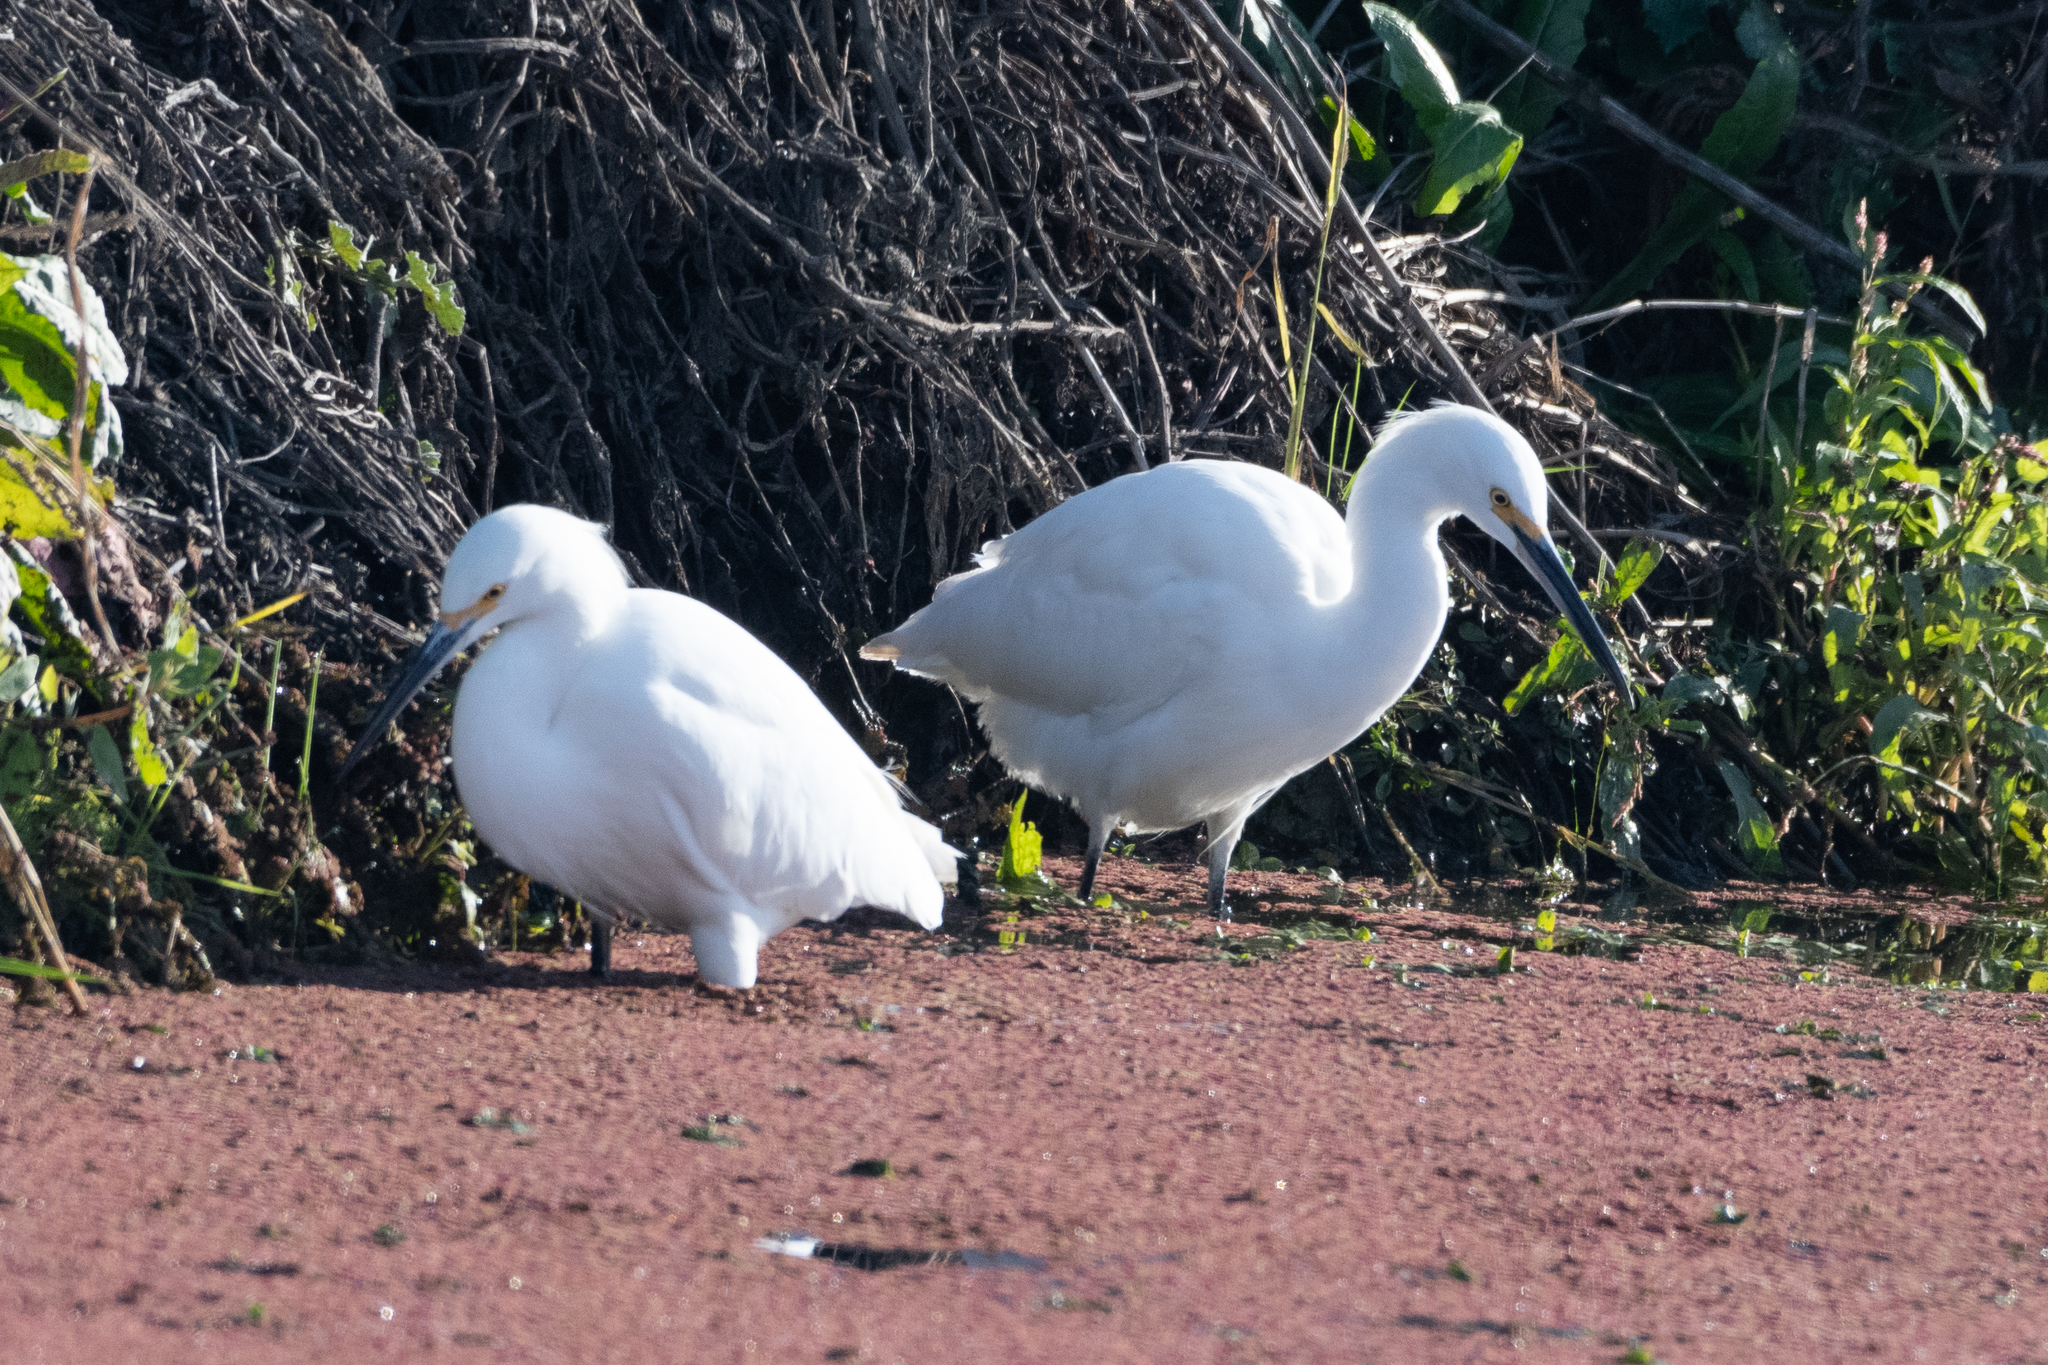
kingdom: Animalia
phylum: Chordata
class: Aves
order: Pelecaniformes
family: Ardeidae
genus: Egretta
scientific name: Egretta thula
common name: Snowy egret
